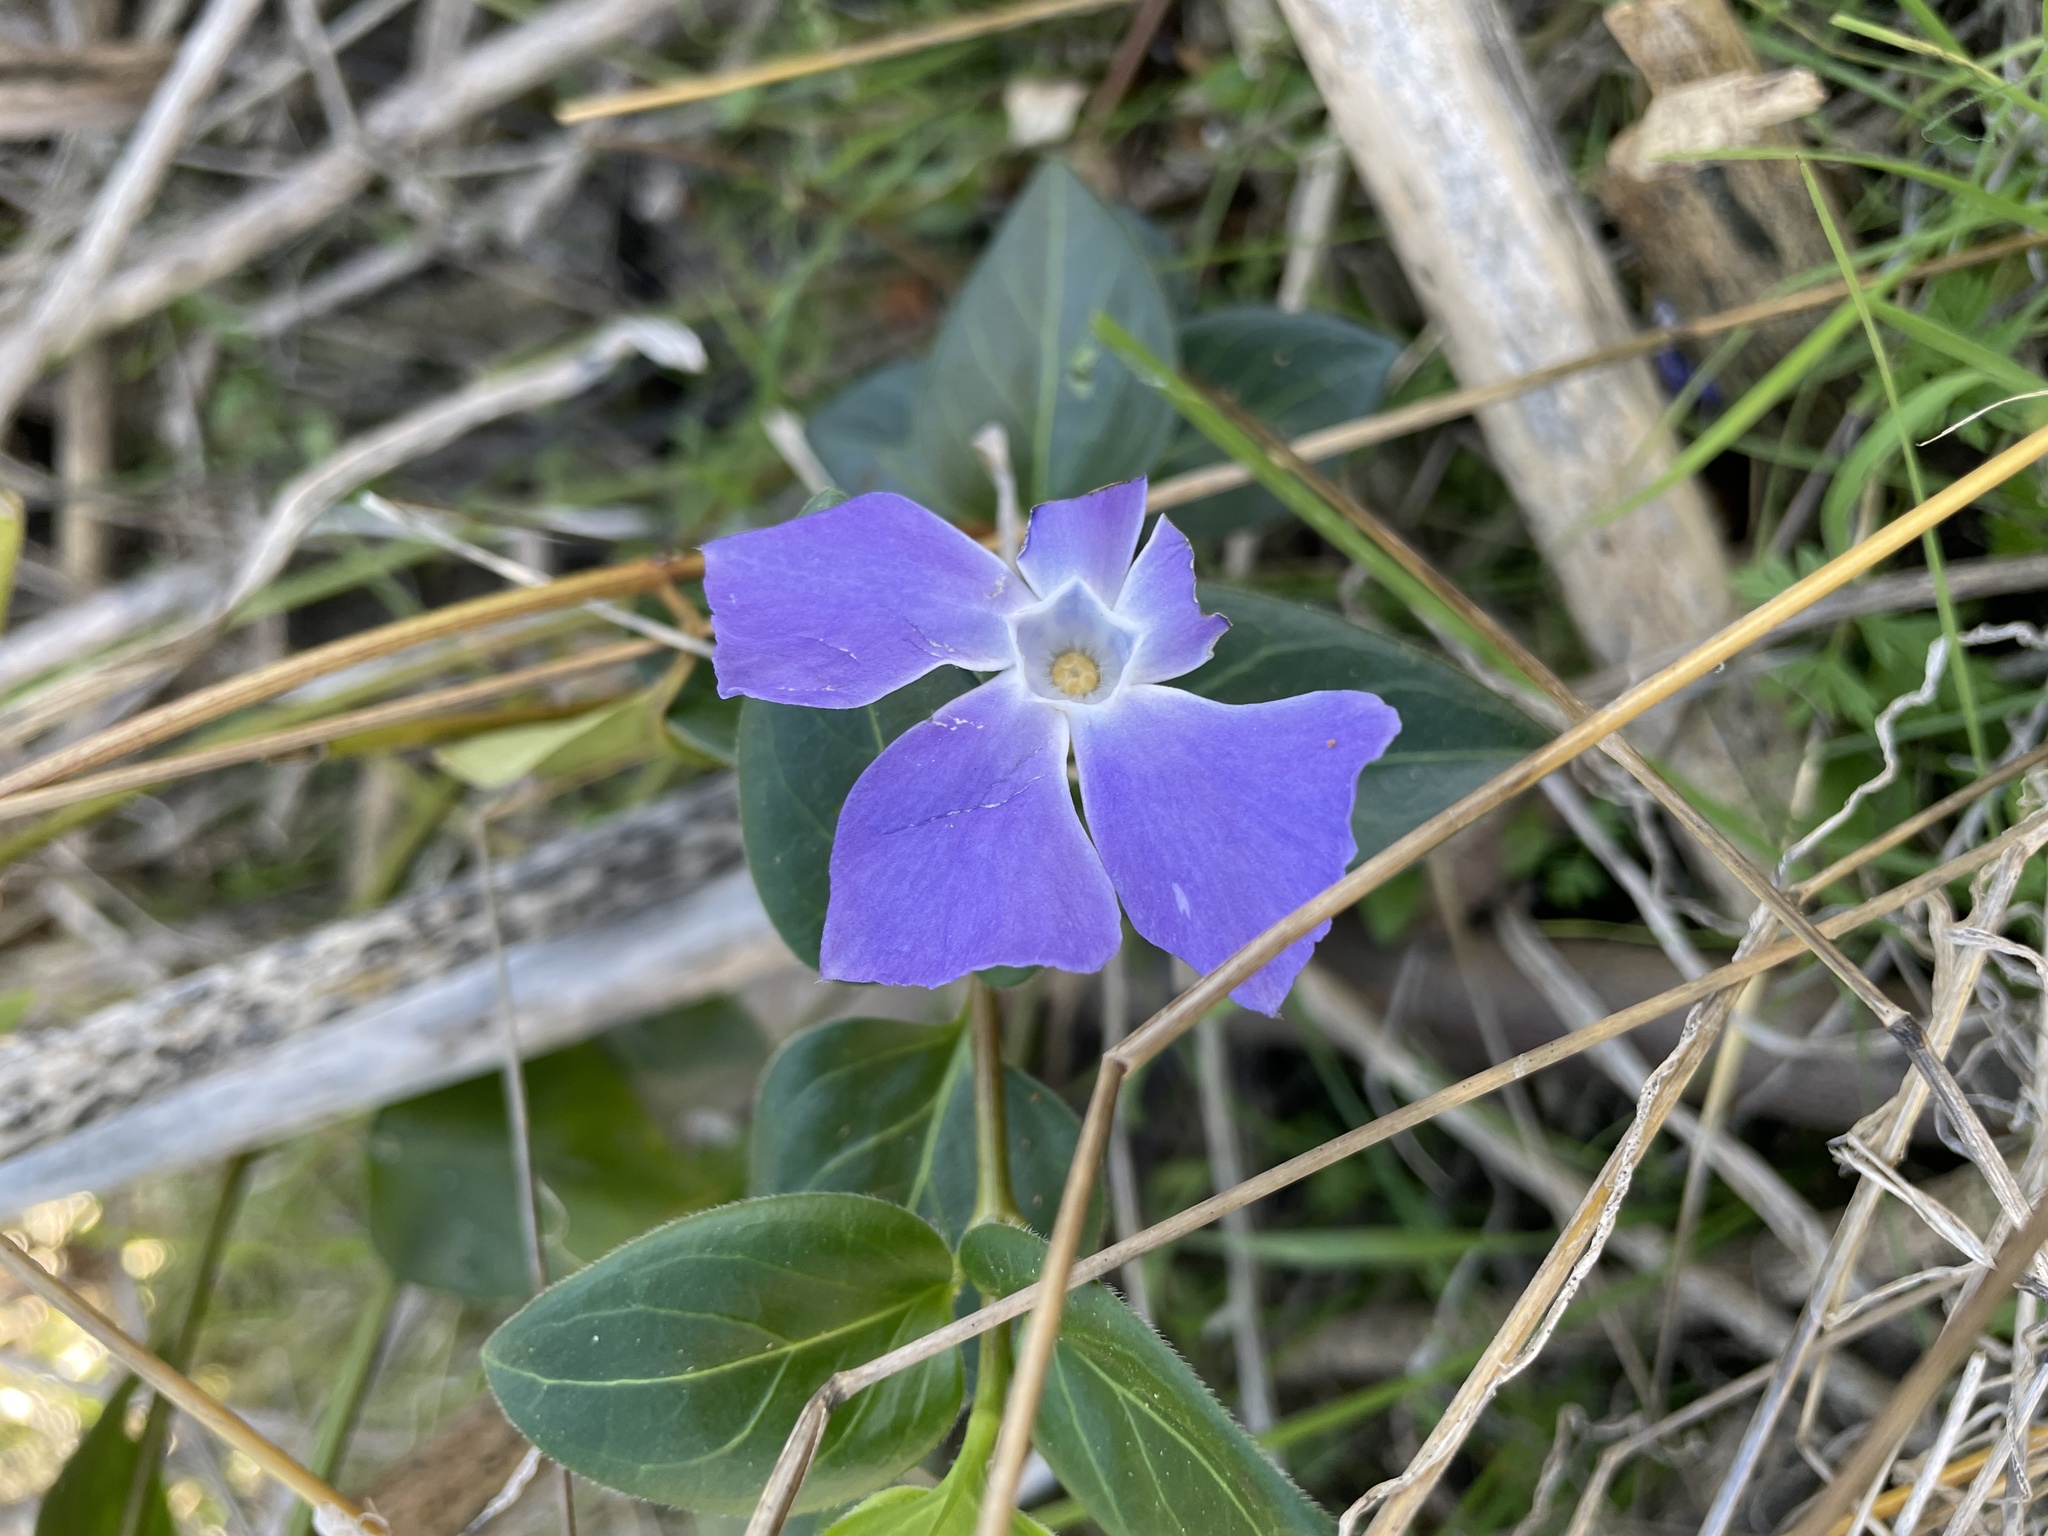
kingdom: Plantae
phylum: Tracheophyta
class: Magnoliopsida
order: Gentianales
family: Apocynaceae
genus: Vinca
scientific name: Vinca major
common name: Greater periwinkle
